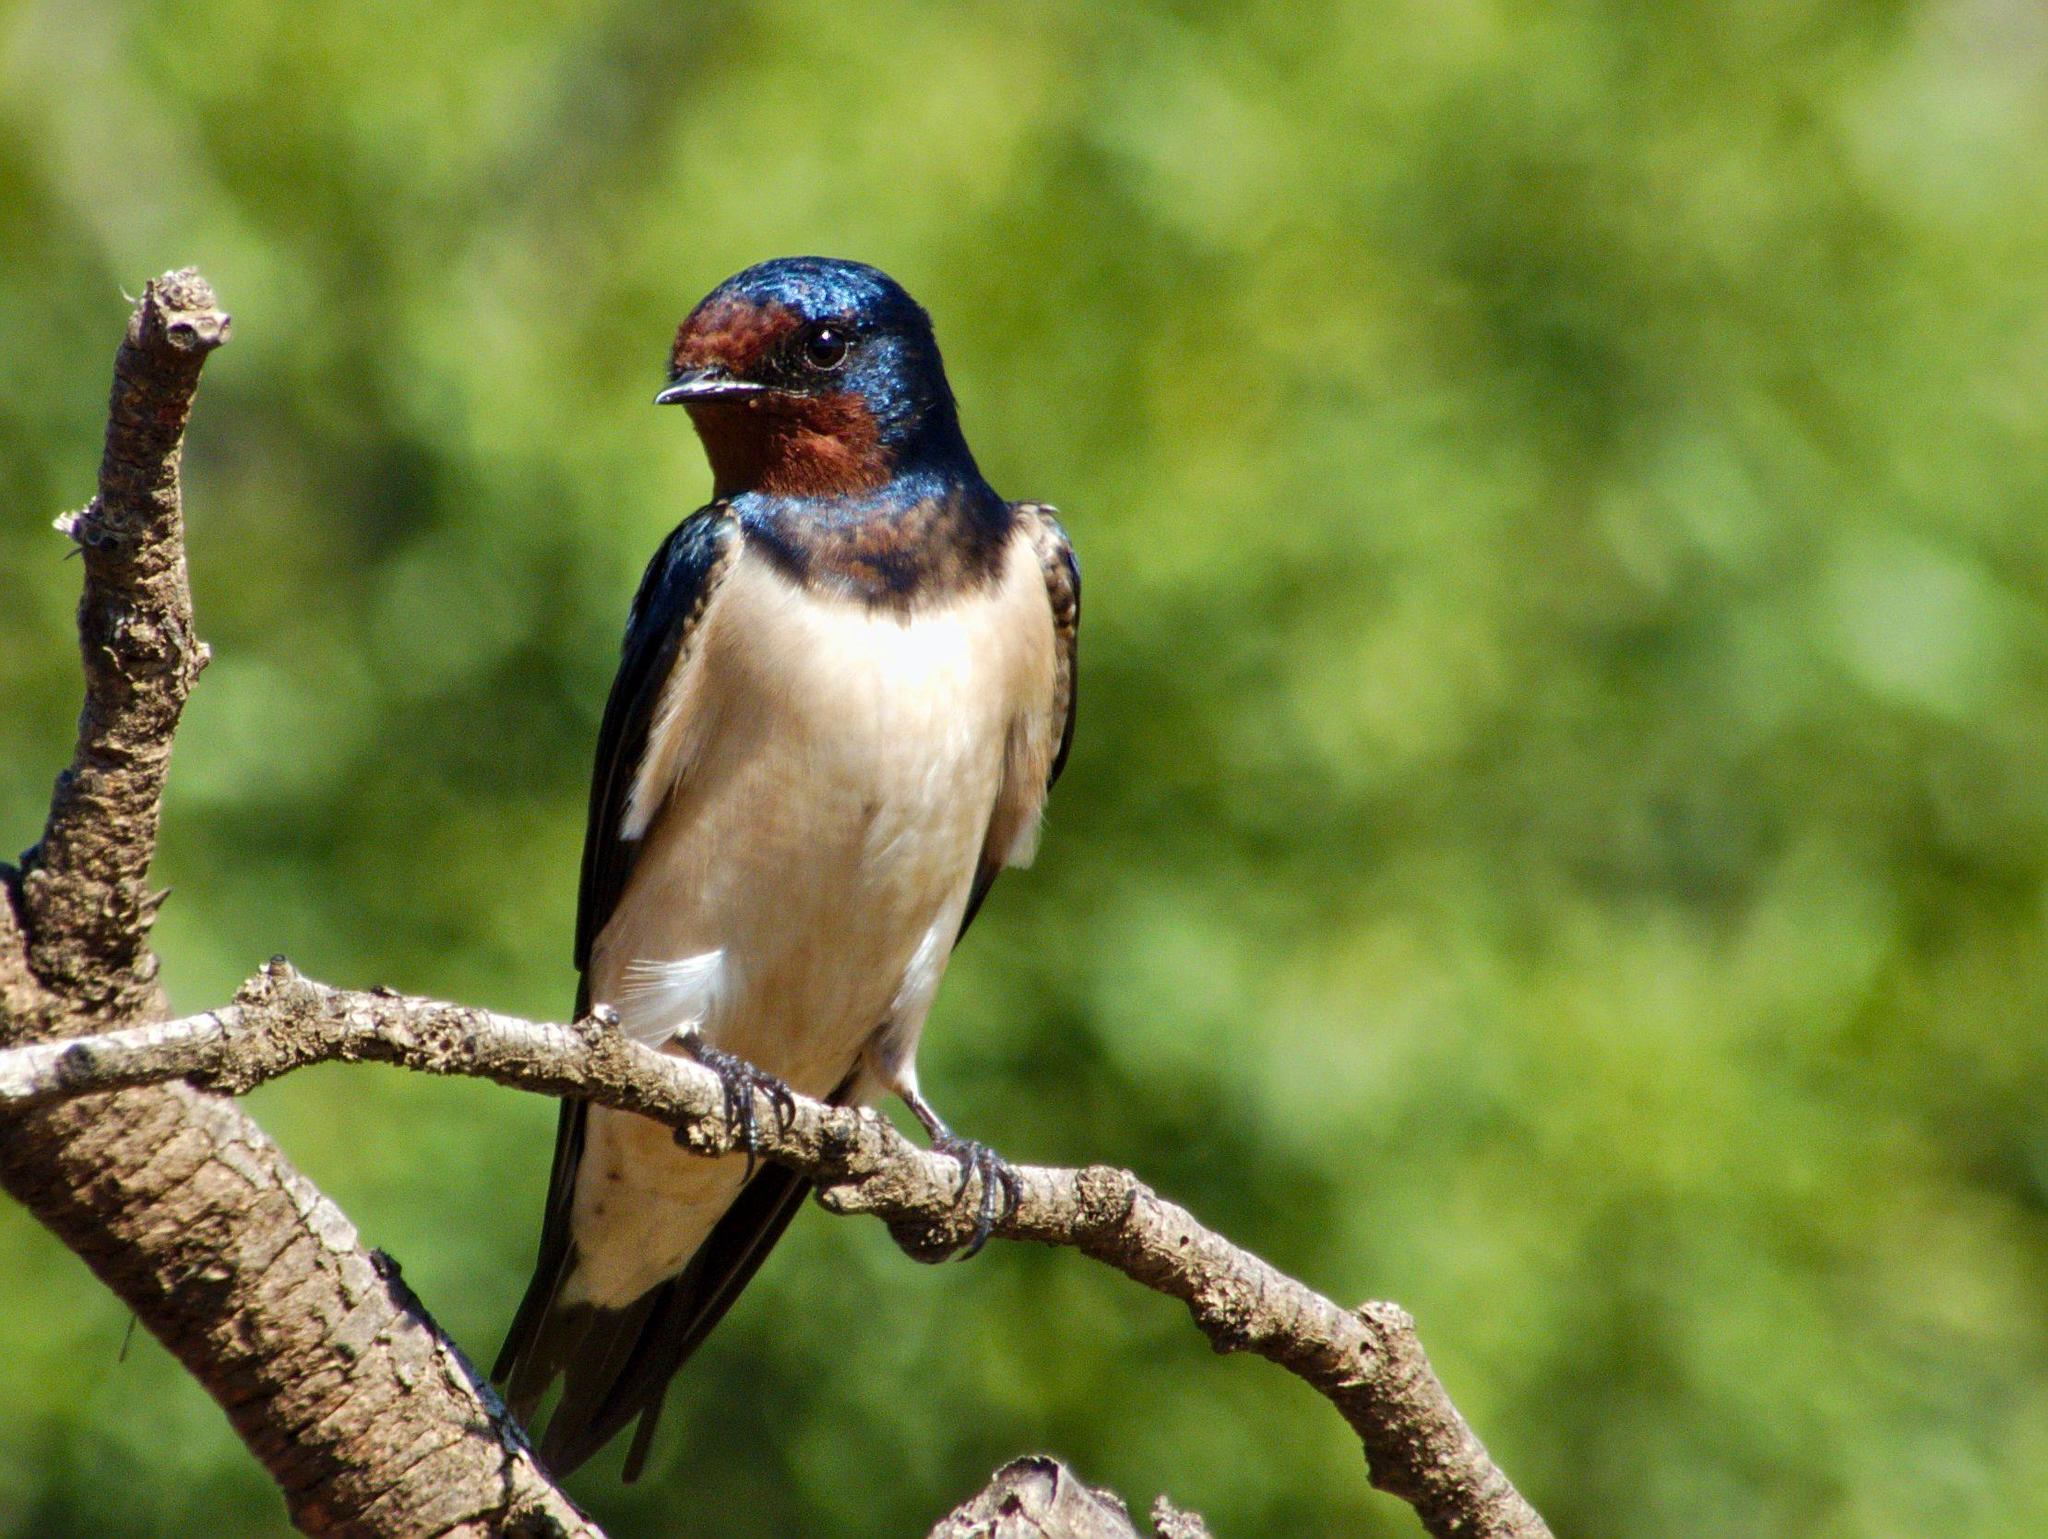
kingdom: Animalia
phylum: Chordata
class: Aves
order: Passeriformes
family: Hirundinidae
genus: Hirundo
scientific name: Hirundo rustica
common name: Barn swallow
